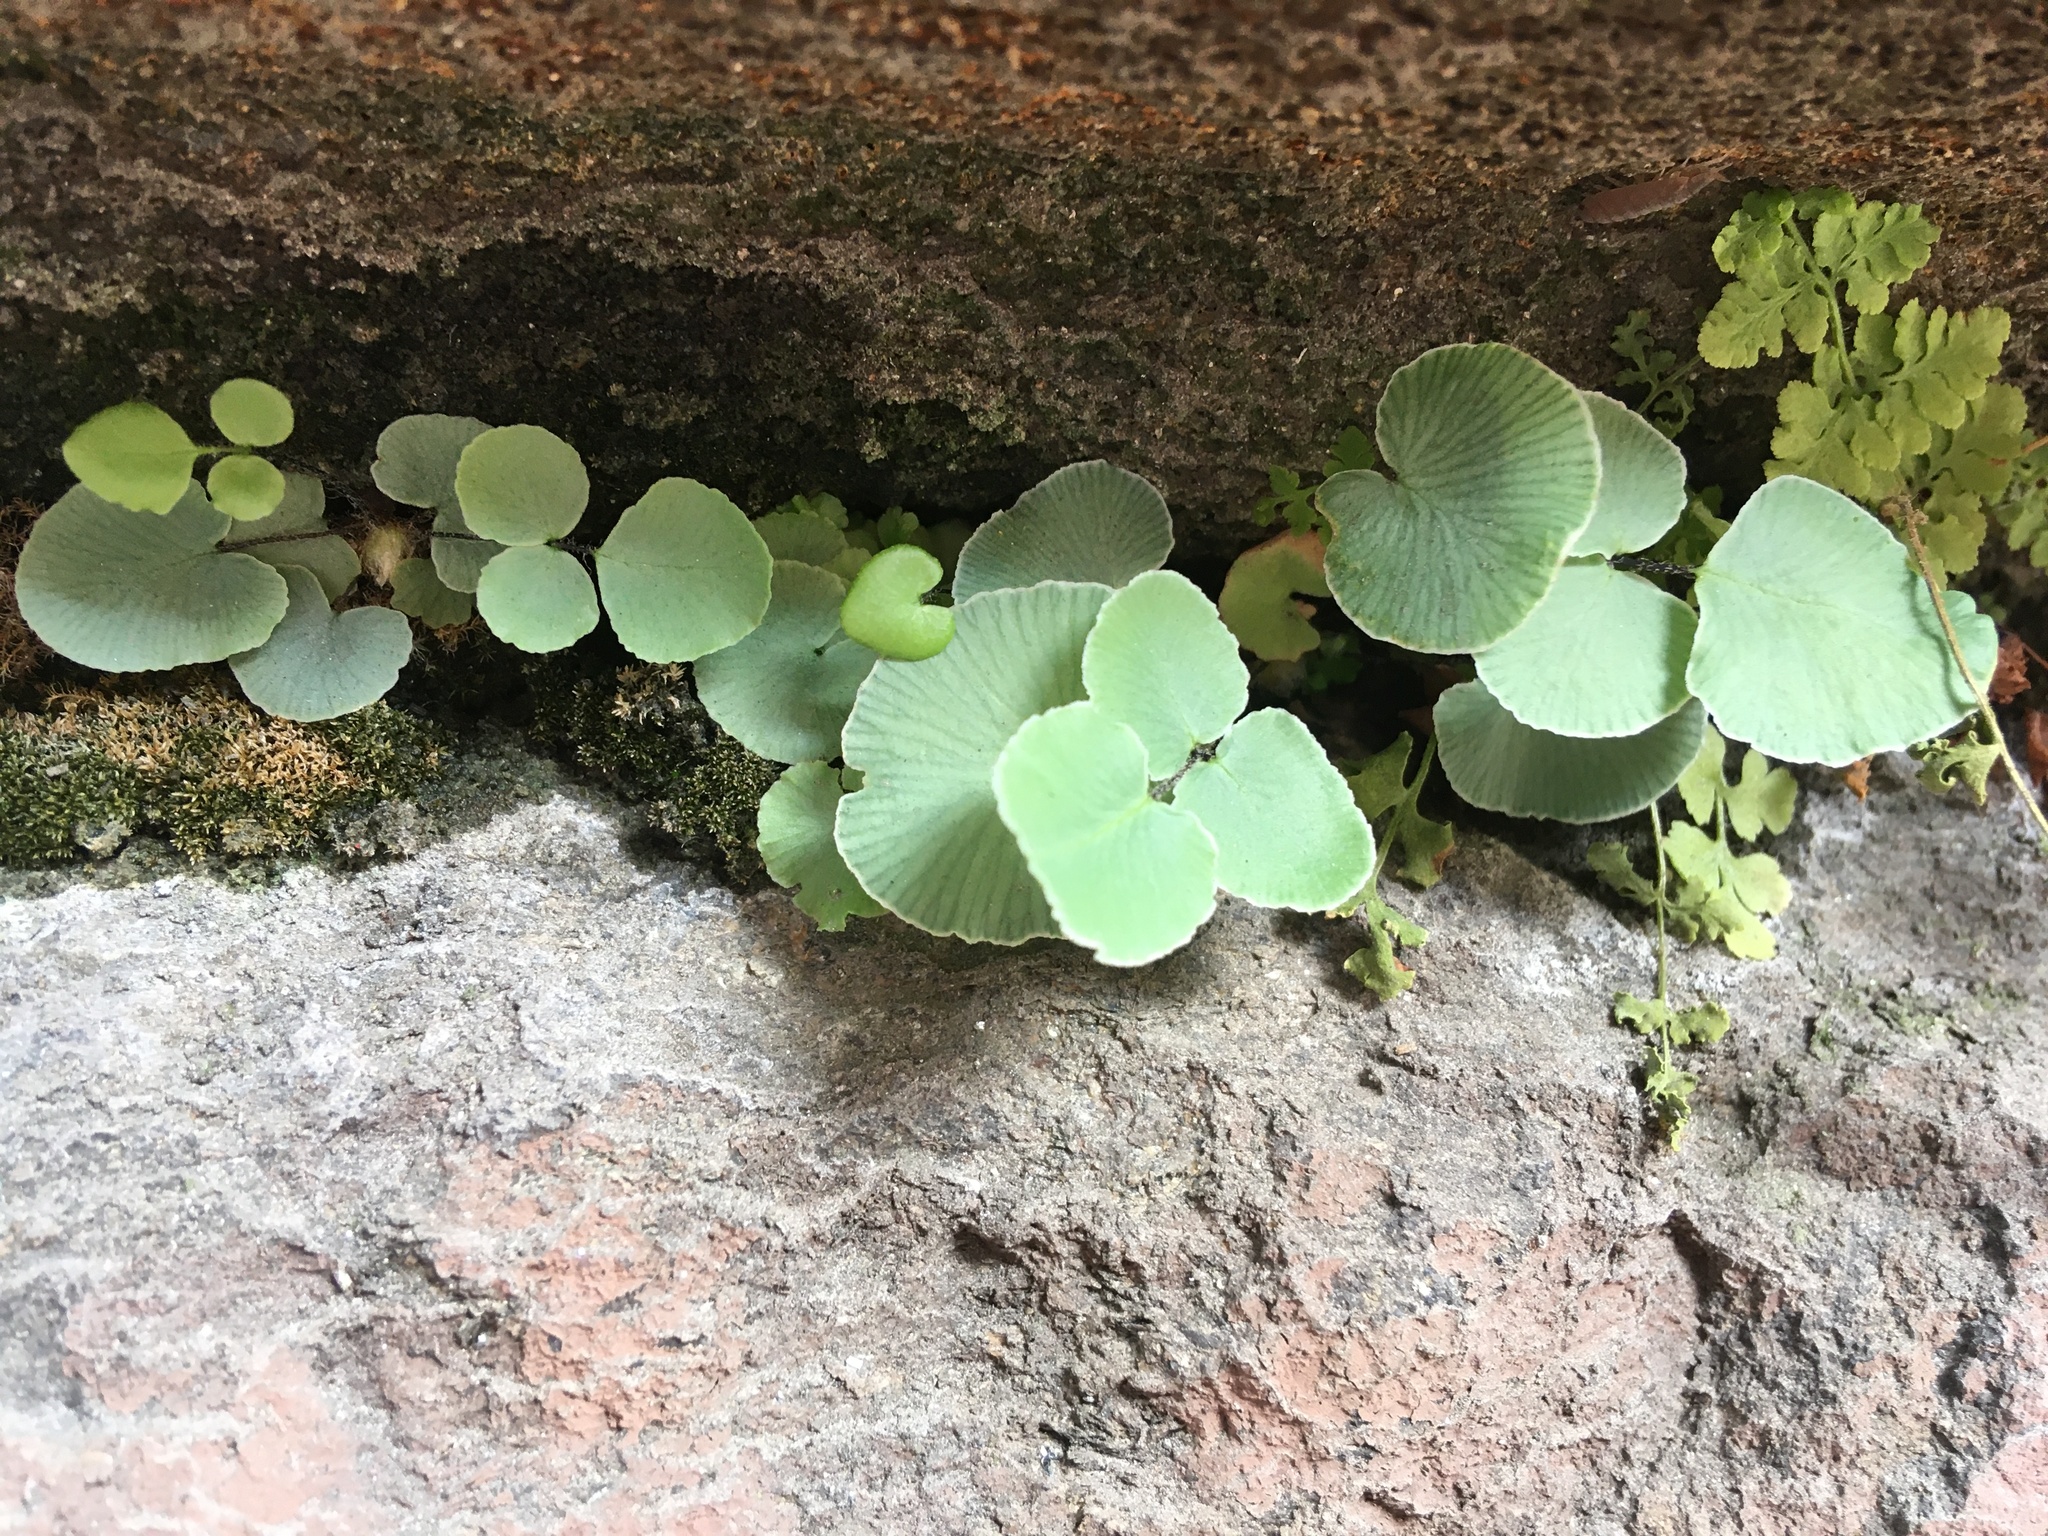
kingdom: Plantae
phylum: Tracheophyta
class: Polypodiopsida
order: Polypodiales
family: Pteridaceae
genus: Pellaea
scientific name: Pellaea atropurpurea
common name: Hairy cliffbrake
